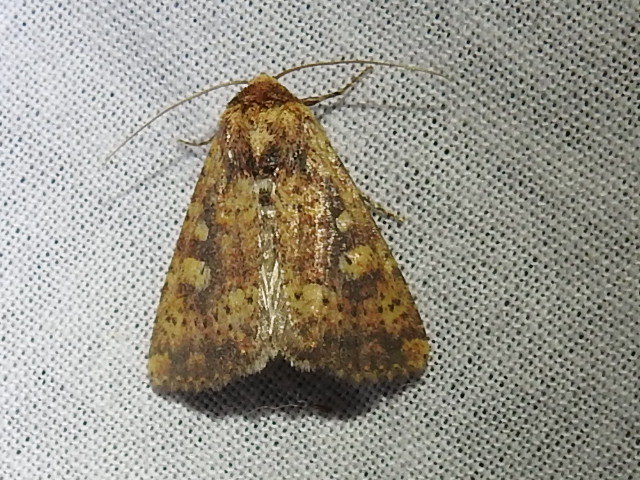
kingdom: Animalia
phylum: Arthropoda
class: Insecta
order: Lepidoptera
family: Noctuidae
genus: Perigea
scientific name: Perigea xanthioides
